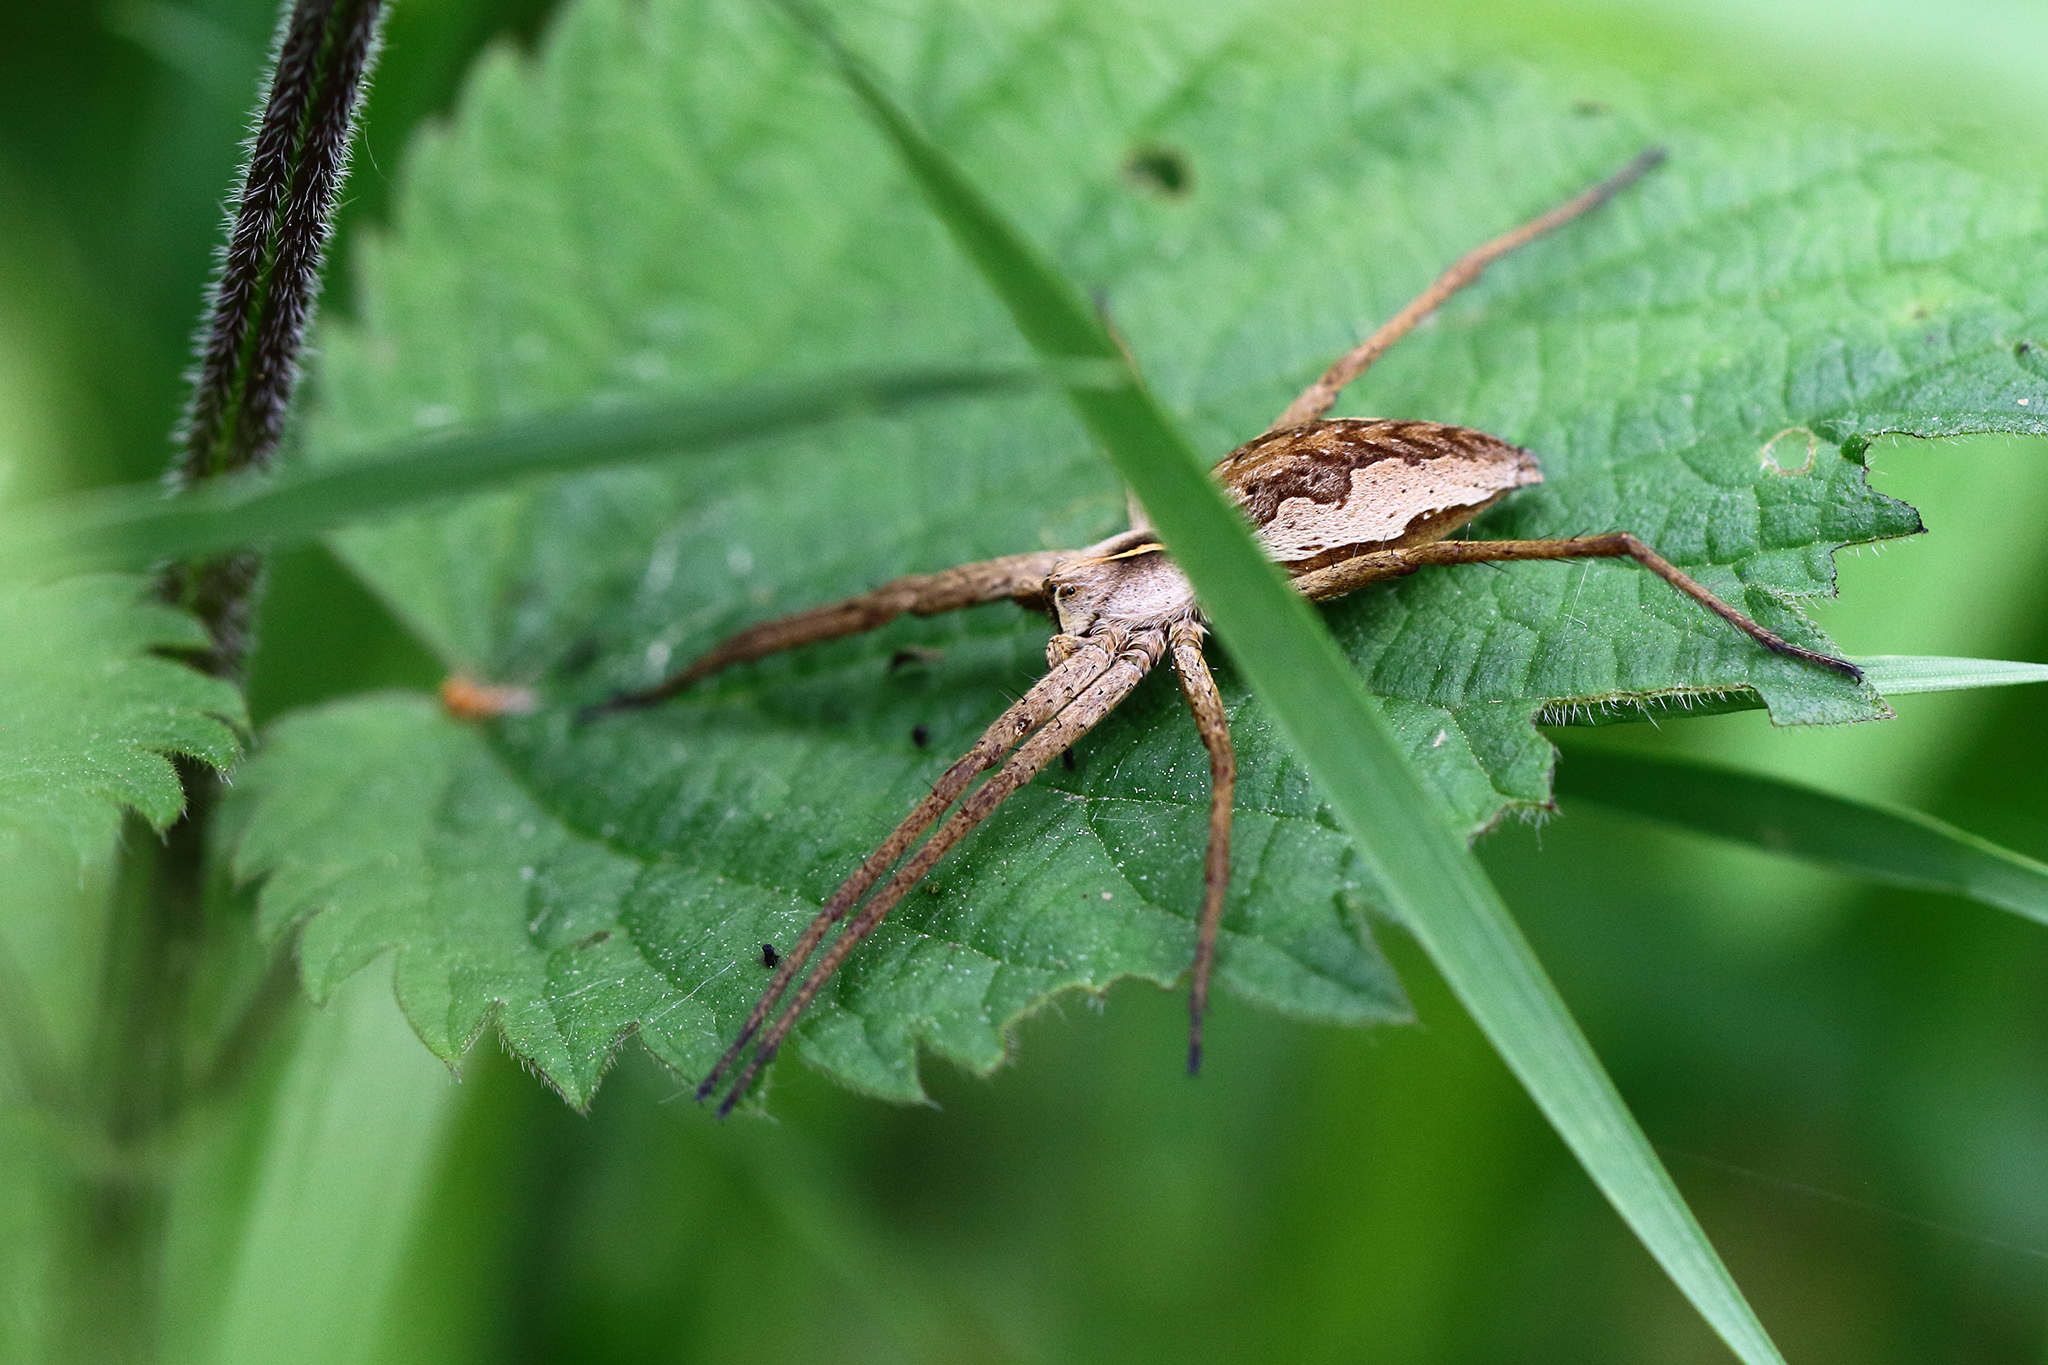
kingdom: Animalia
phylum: Arthropoda
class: Arachnida
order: Araneae
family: Pisauridae
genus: Pisaura
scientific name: Pisaura mirabilis
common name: Tent spider
